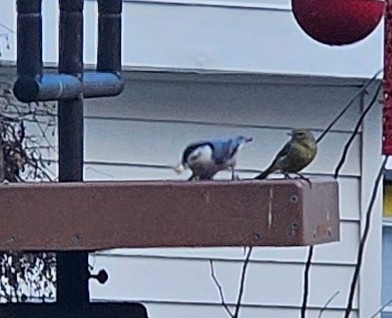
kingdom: Animalia
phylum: Chordata
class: Aves
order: Passeriformes
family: Sittidae
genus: Sitta
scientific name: Sitta carolinensis
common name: White-breasted nuthatch
